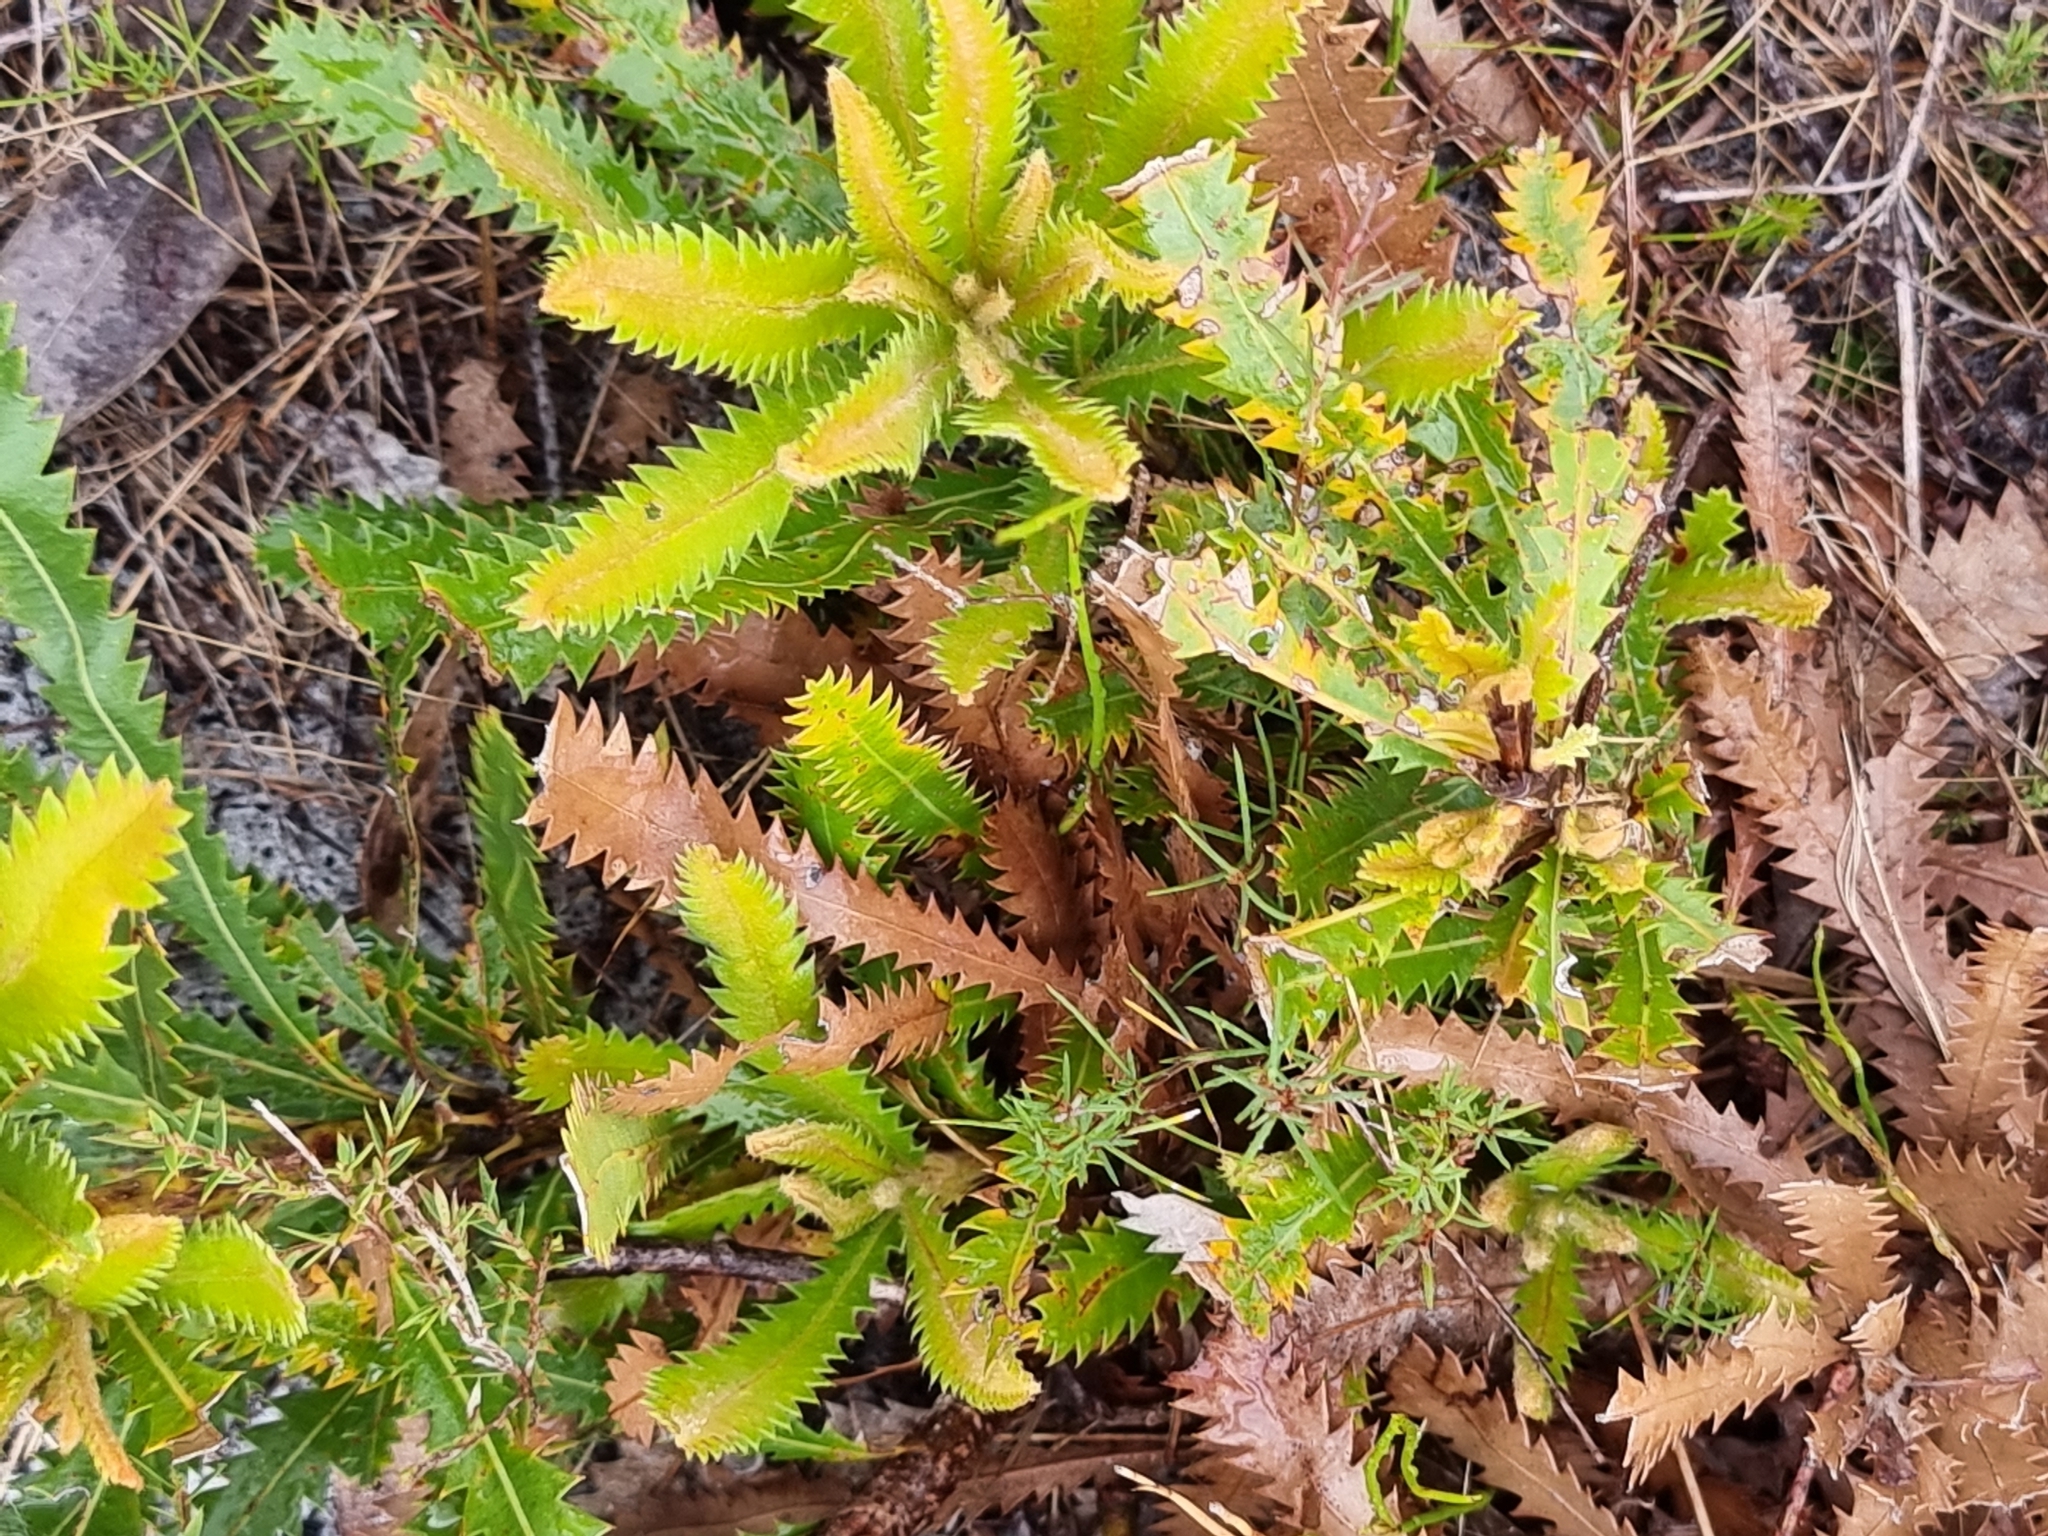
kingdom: Plantae
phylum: Tracheophyta
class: Magnoliopsida
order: Proteales
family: Proteaceae
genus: Banksia
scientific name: Banksia aemula
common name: Wallum banksia
